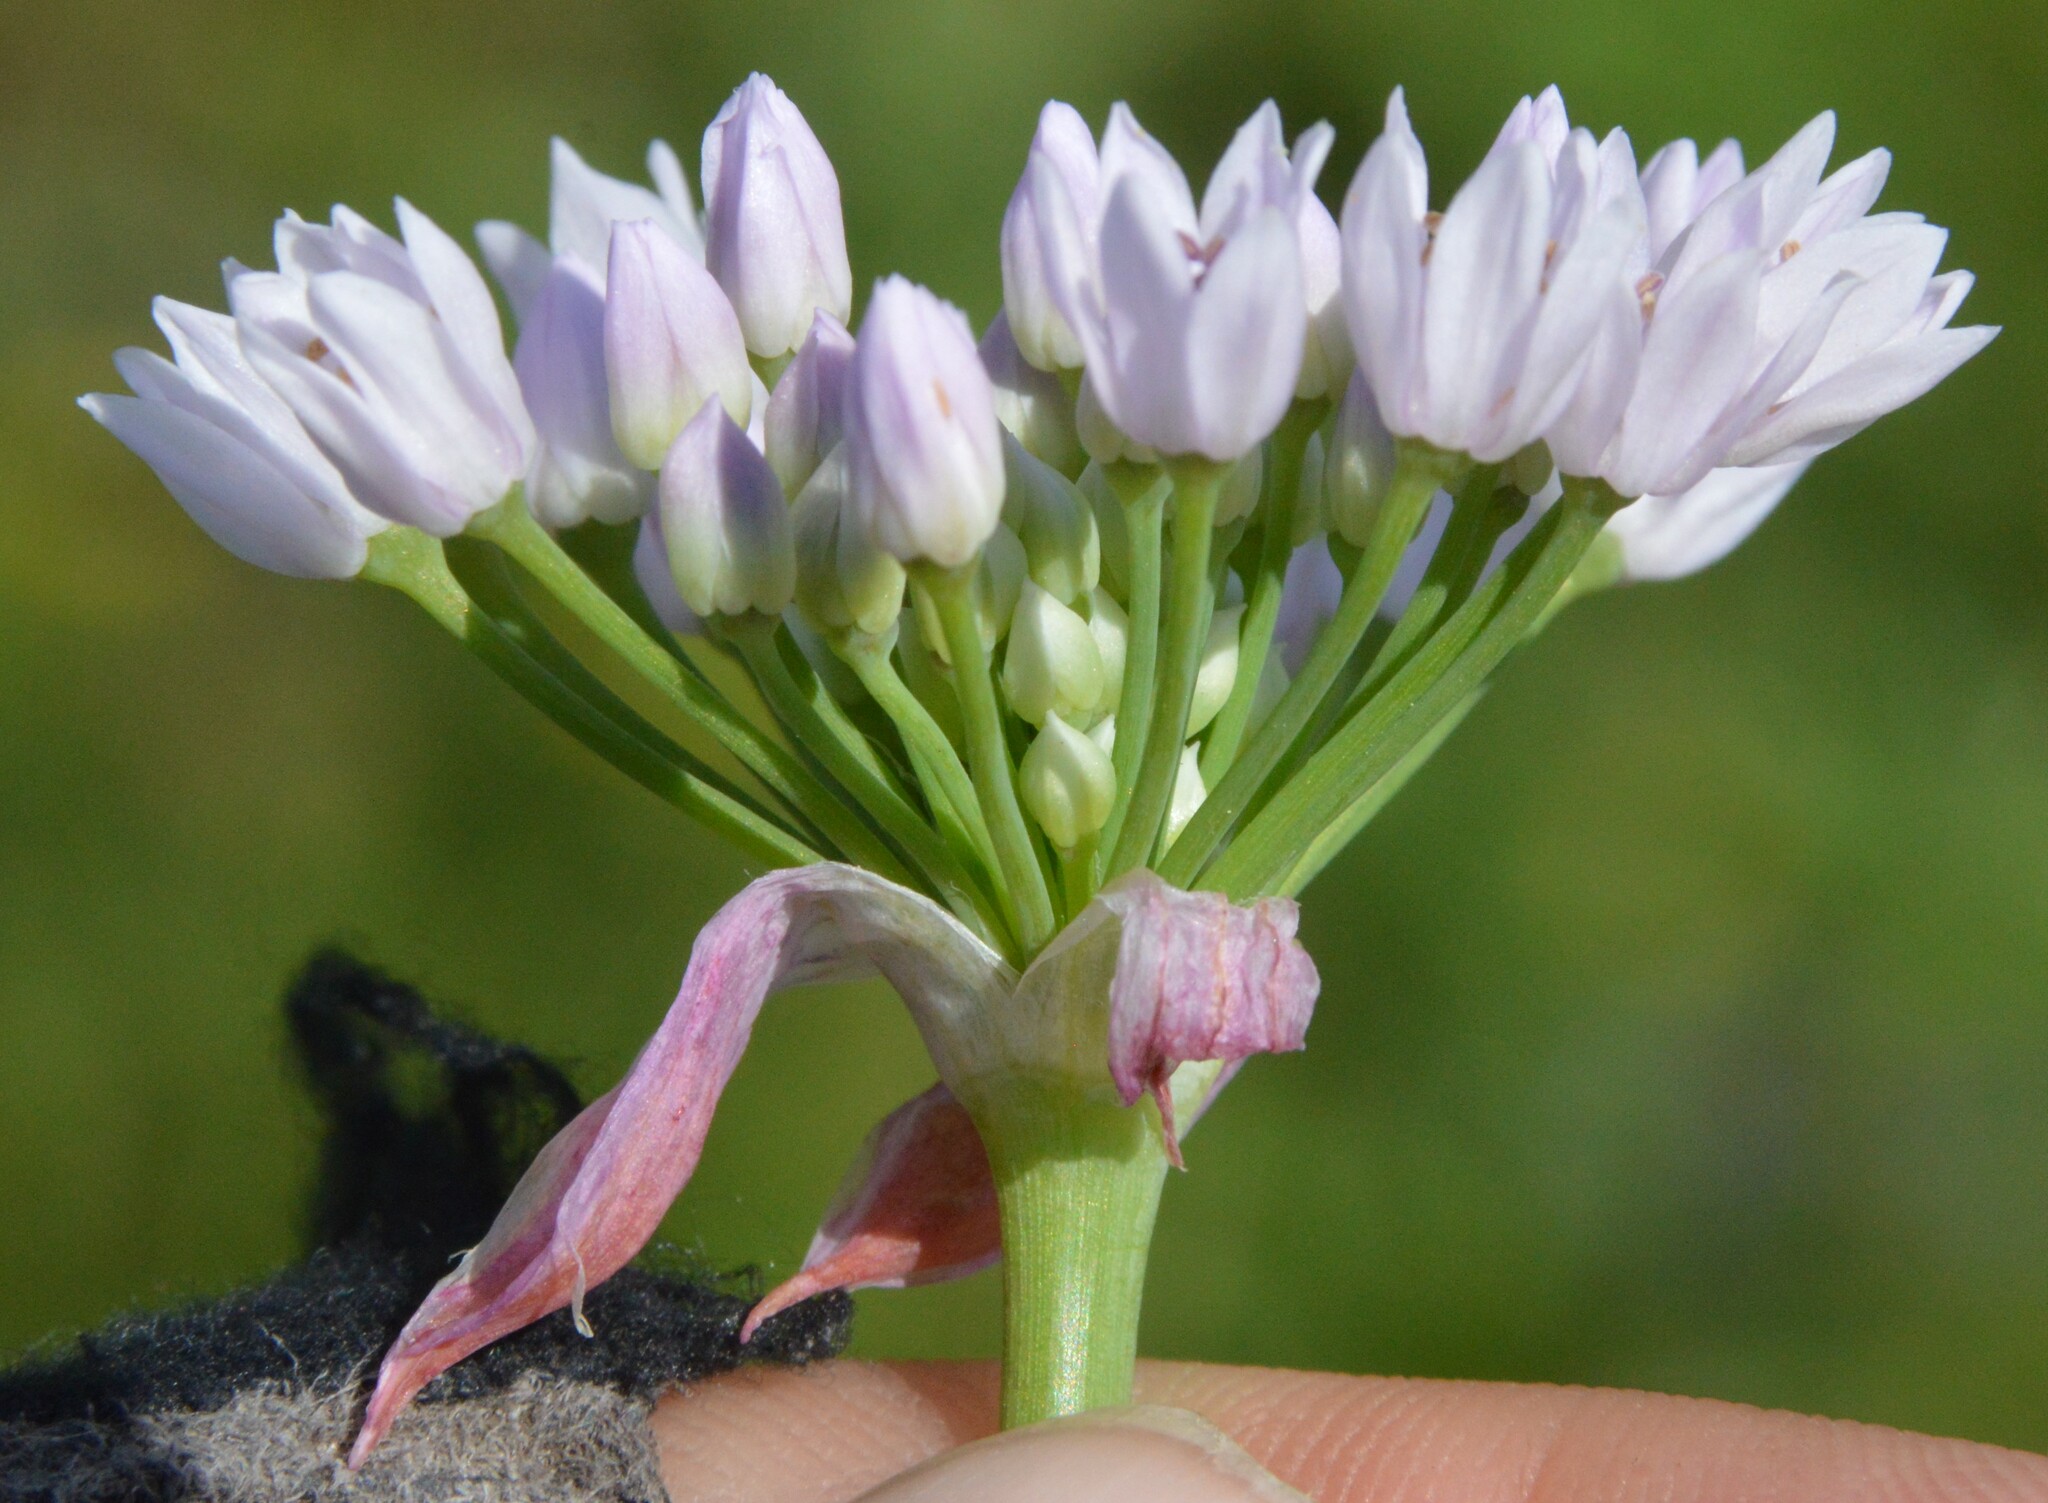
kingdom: Plantae
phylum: Tracheophyta
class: Liliopsida
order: Asparagales
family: Amaryllidaceae
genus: Allium
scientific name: Allium drummondii
